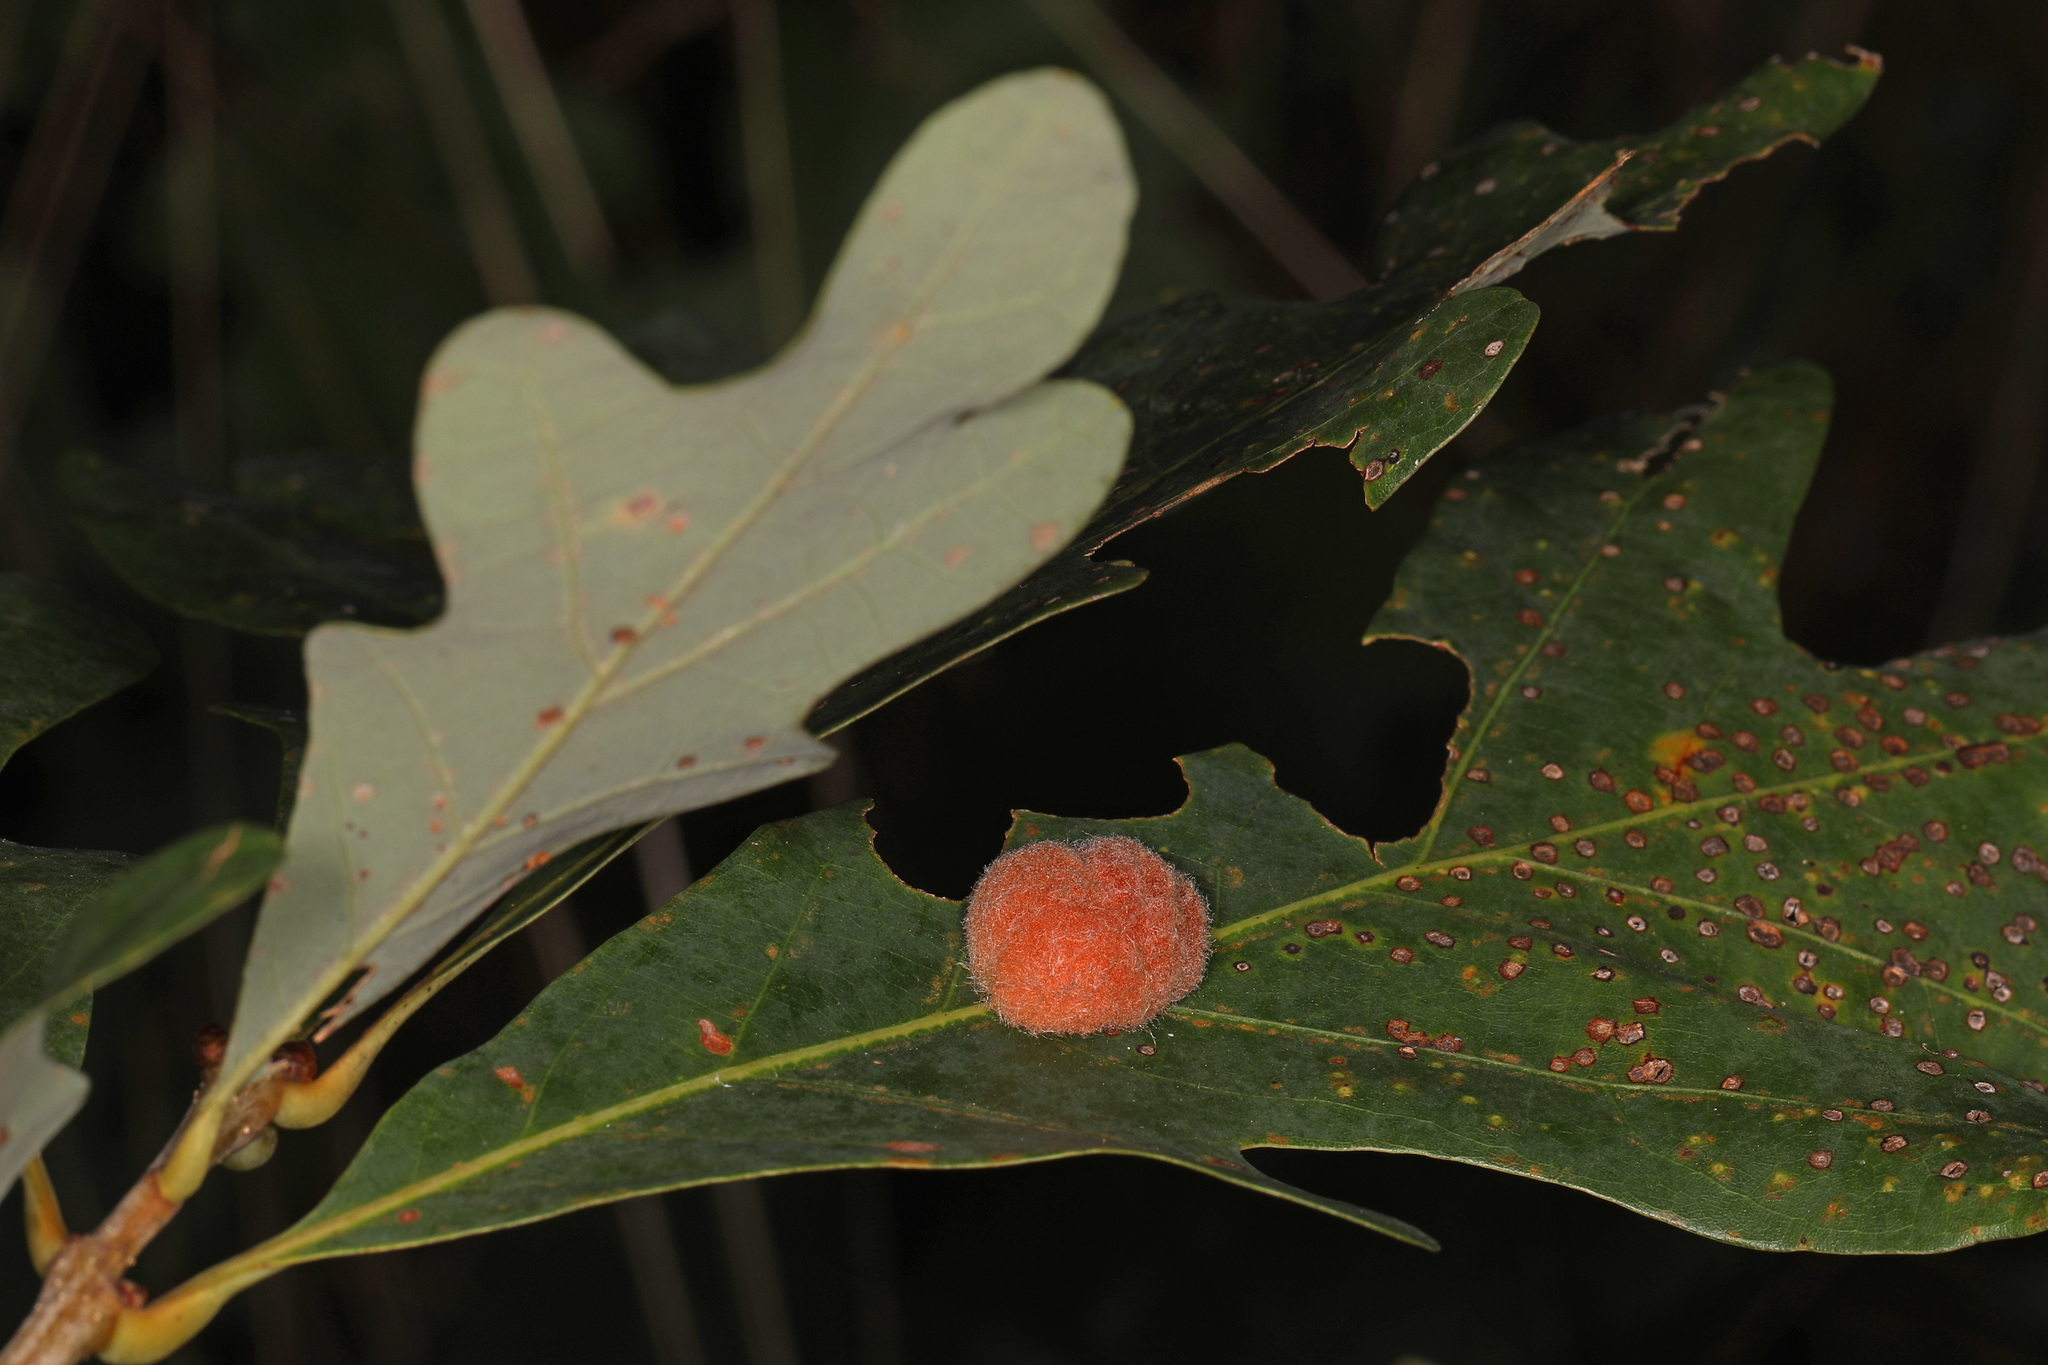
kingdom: Animalia
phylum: Arthropoda
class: Insecta
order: Hymenoptera
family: Cynipidae
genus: Andricus
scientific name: Andricus quercusflocci
